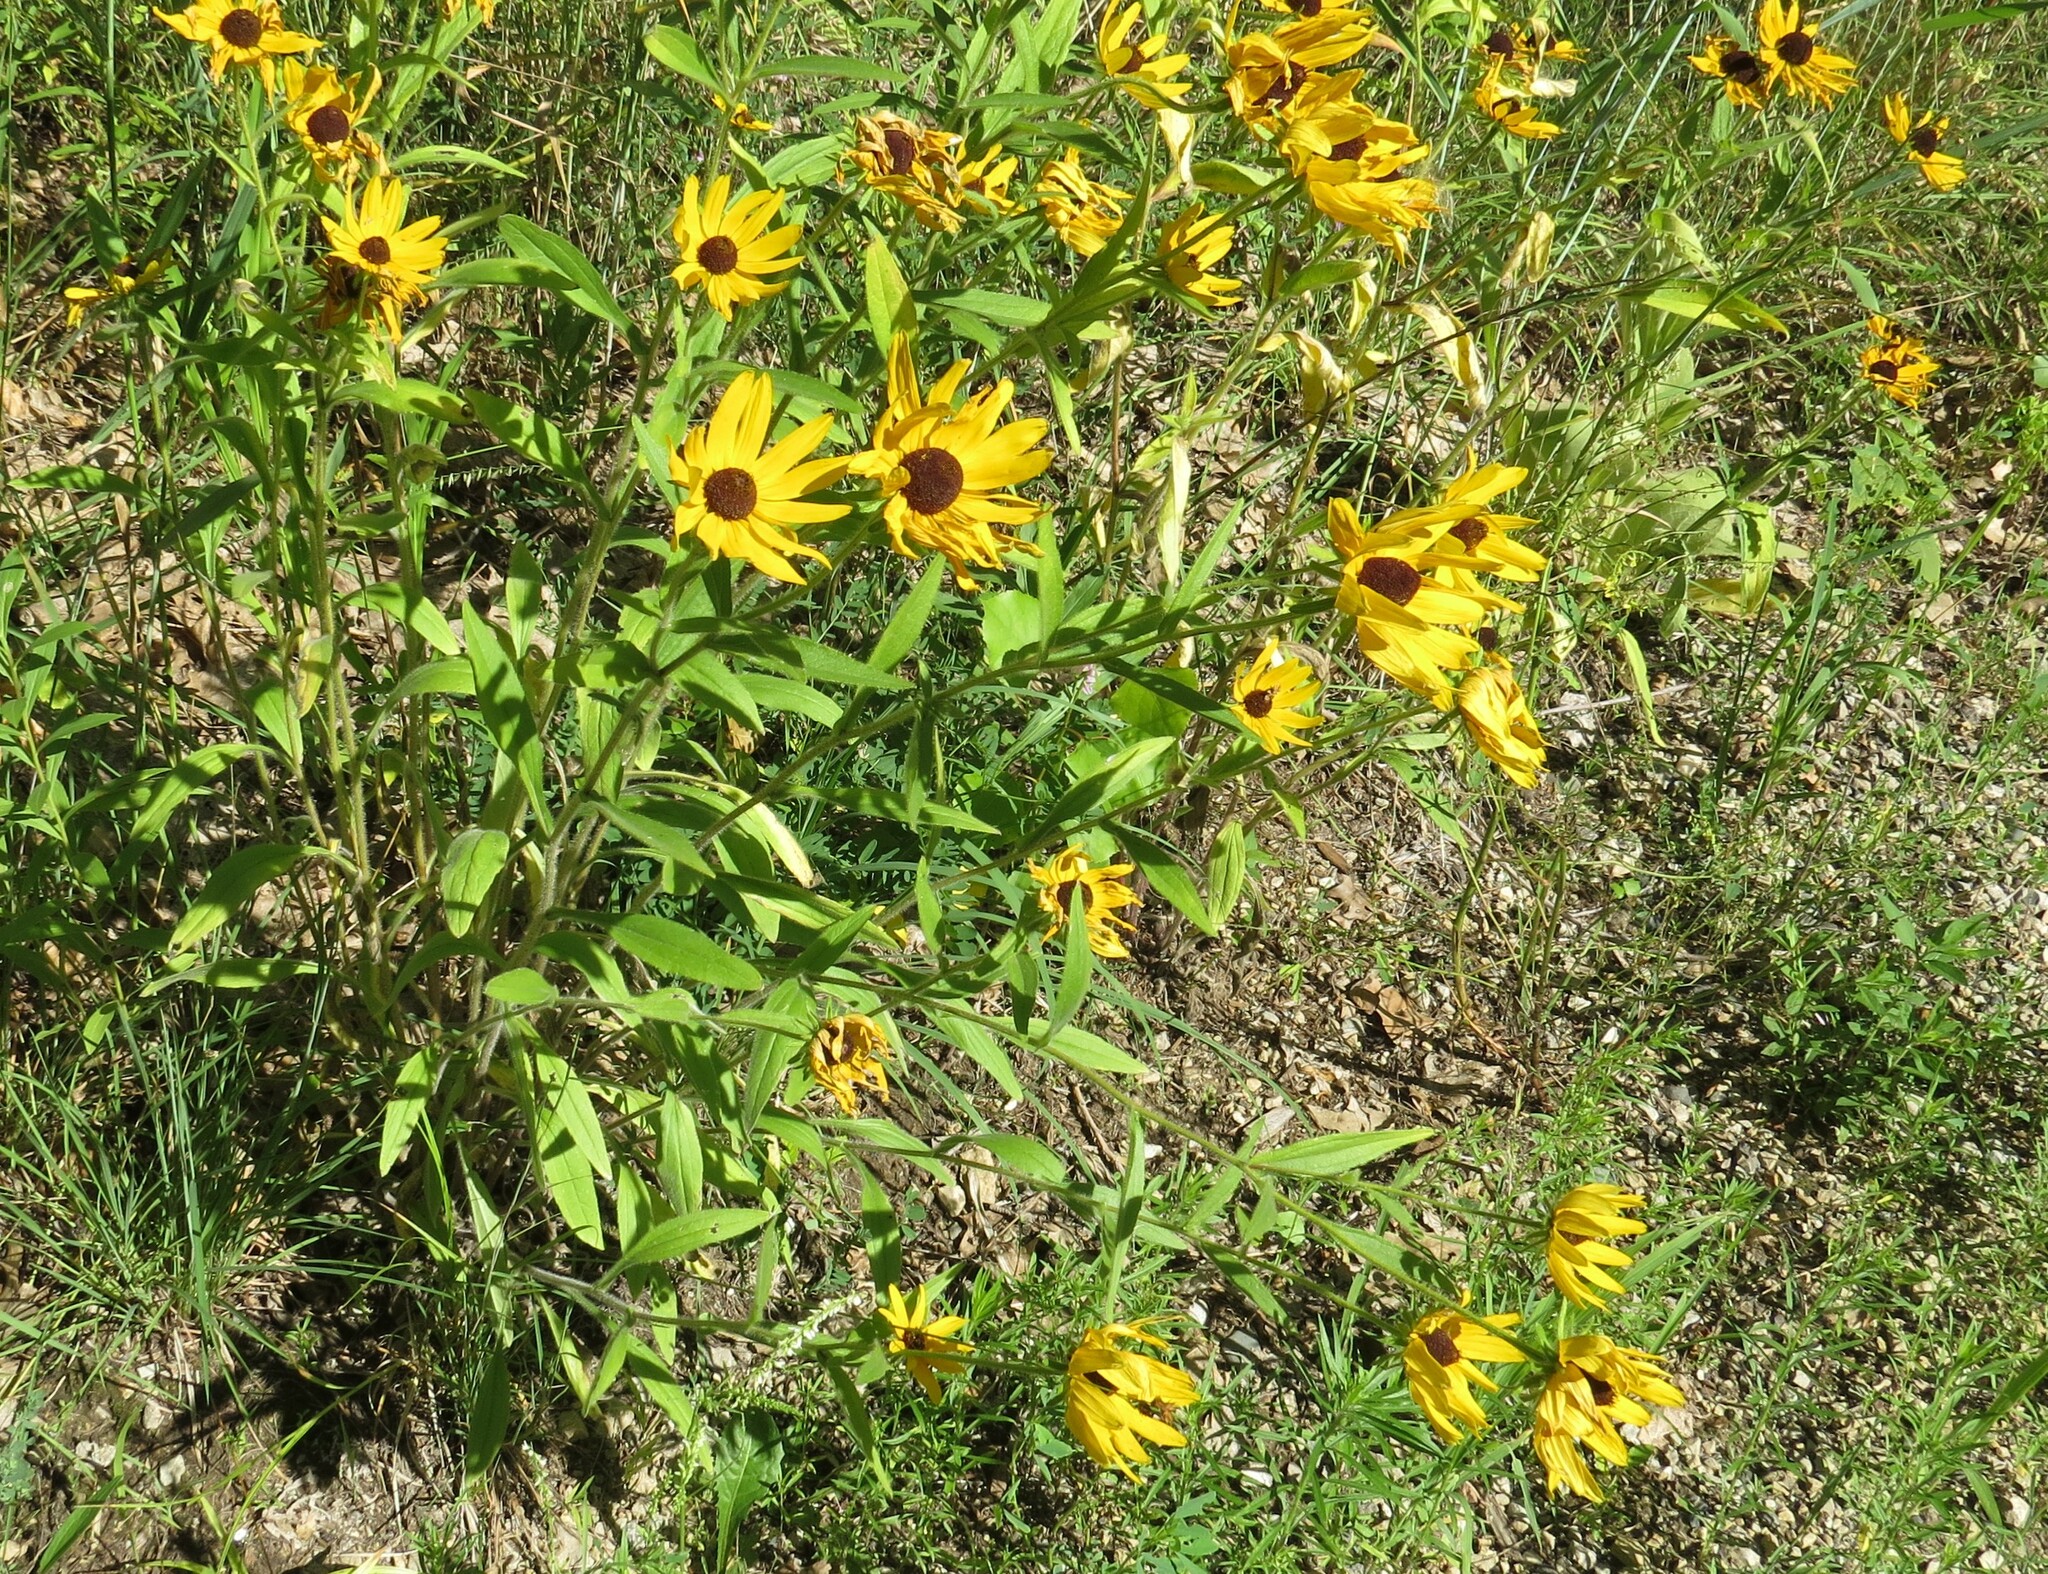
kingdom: Plantae
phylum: Tracheophyta
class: Magnoliopsida
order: Asterales
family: Asteraceae
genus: Rudbeckia
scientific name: Rudbeckia hirta
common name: Black-eyed-susan
